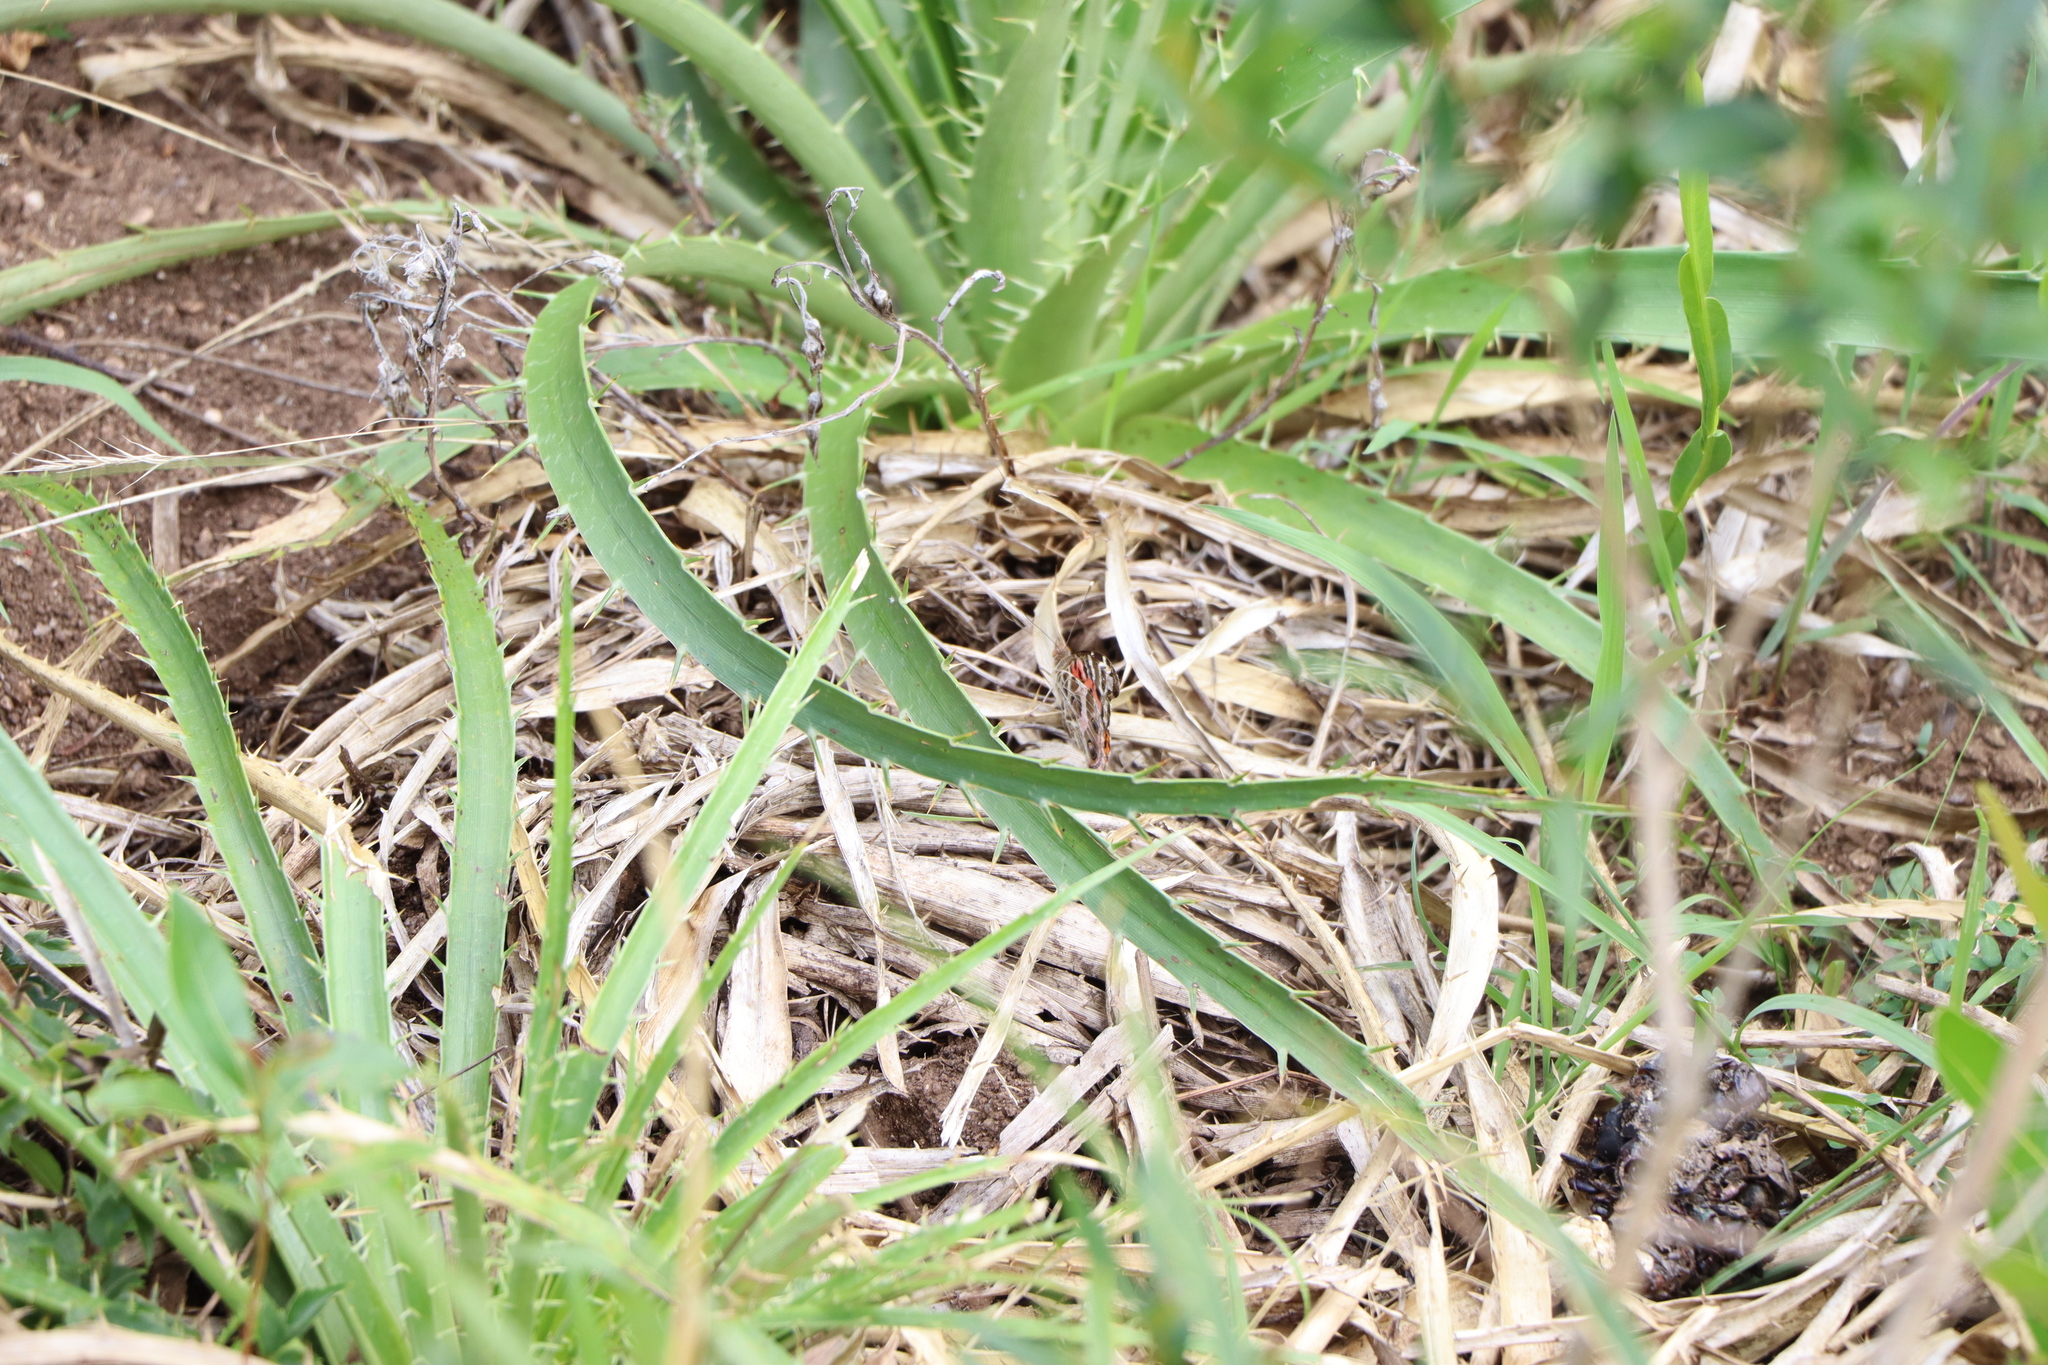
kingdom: Animalia
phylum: Arthropoda
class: Insecta
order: Lepidoptera
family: Nymphalidae
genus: Vanessa
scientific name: Vanessa braziliensis
